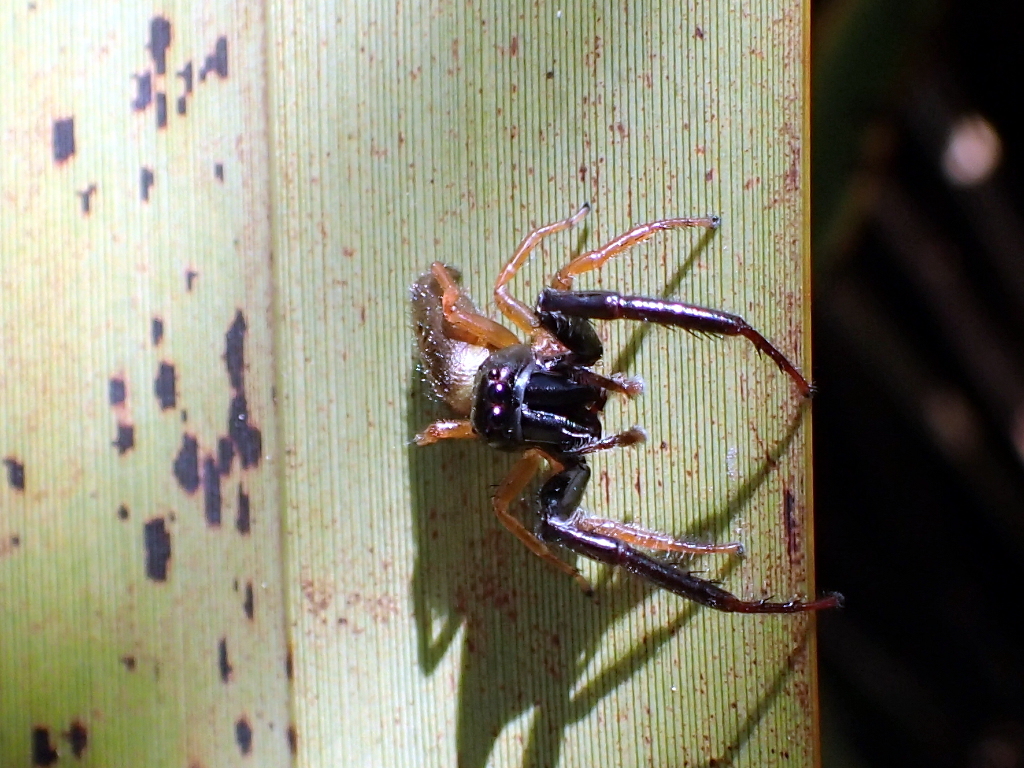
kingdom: Animalia
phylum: Arthropoda
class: Arachnida
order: Araneae
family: Salticidae
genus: Trite
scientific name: Trite planiceps
